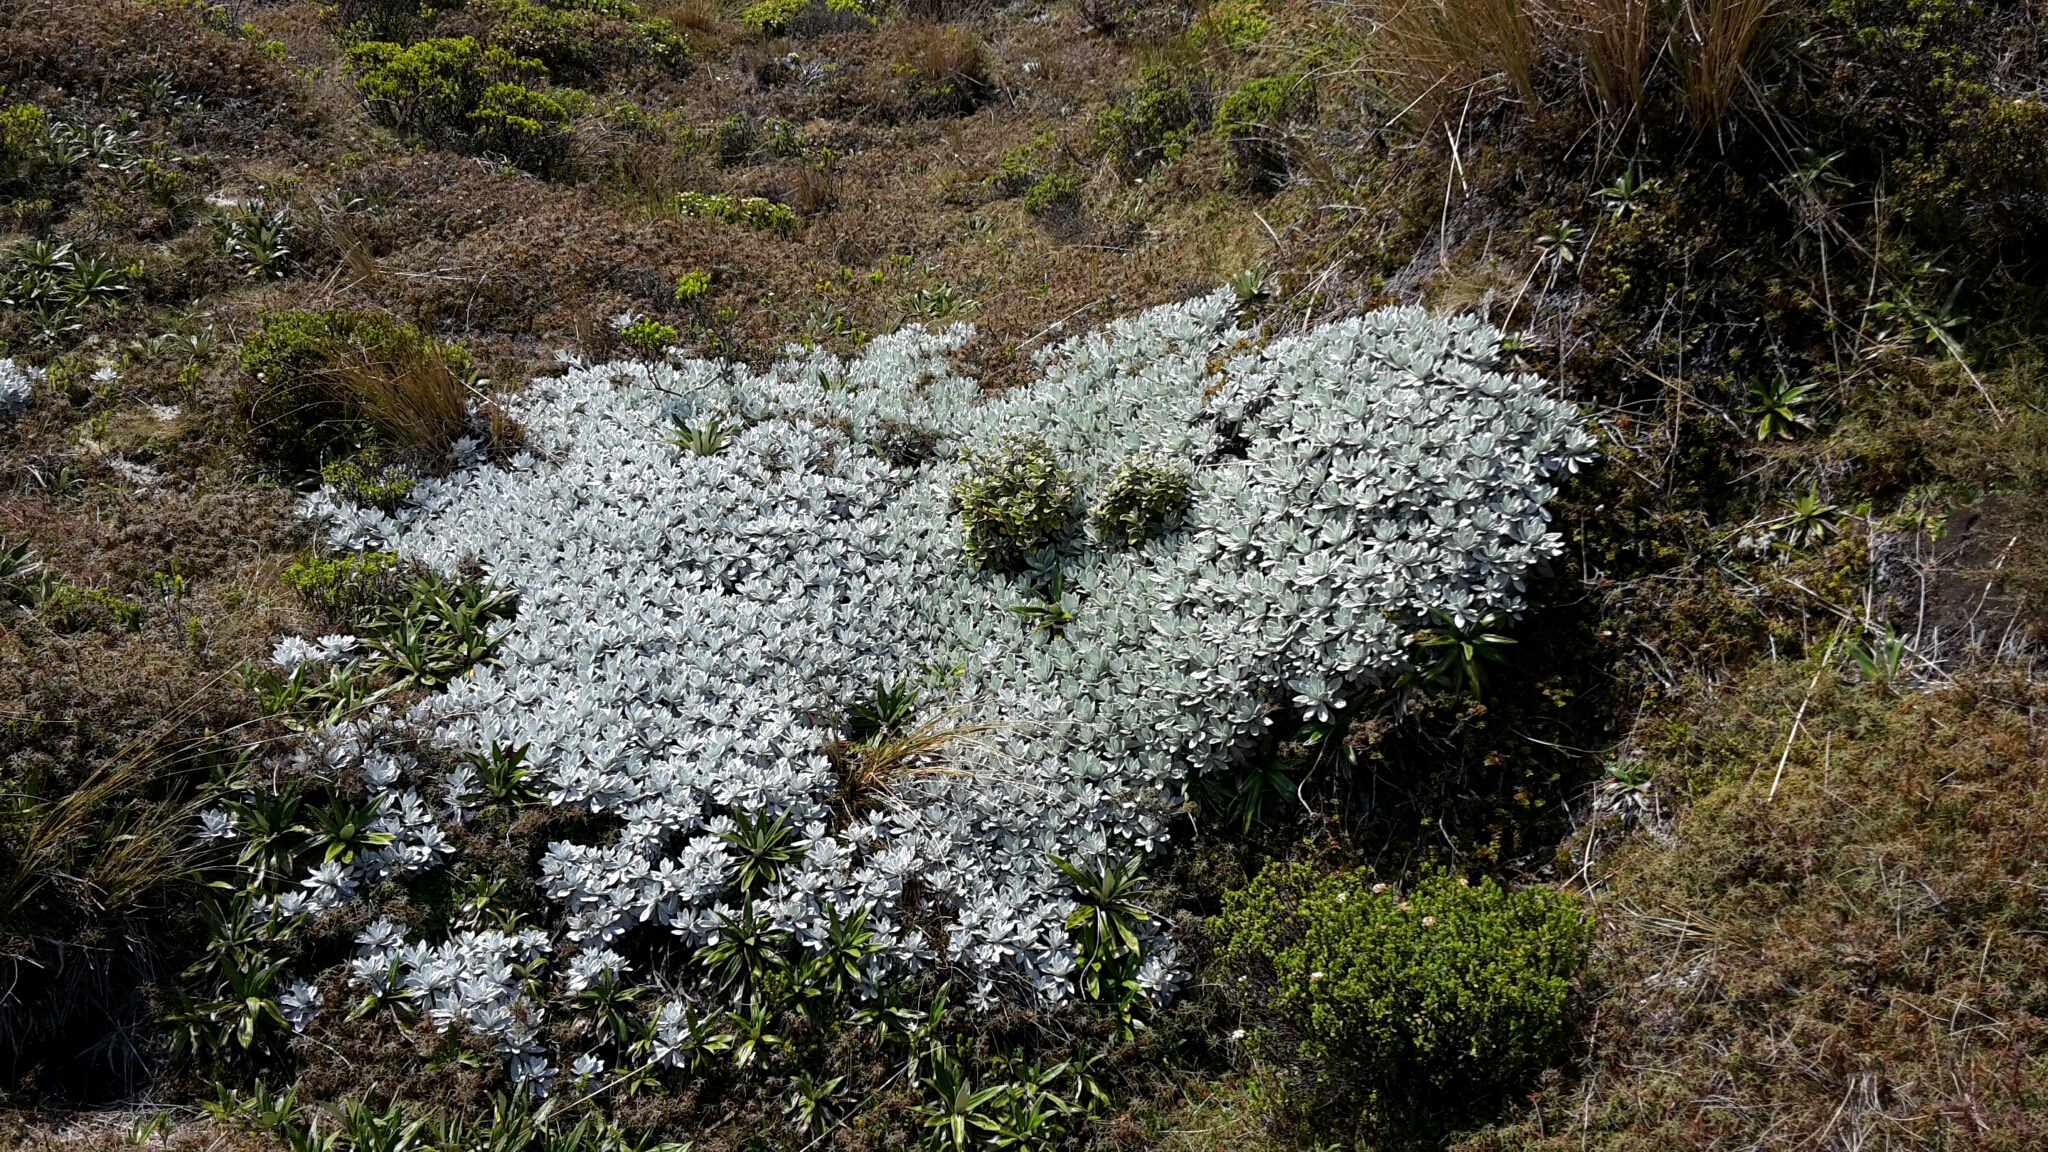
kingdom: Plantae
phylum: Tracheophyta
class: Magnoliopsida
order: Asterales
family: Asteraceae
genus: Celmisia
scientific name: Celmisia incana
